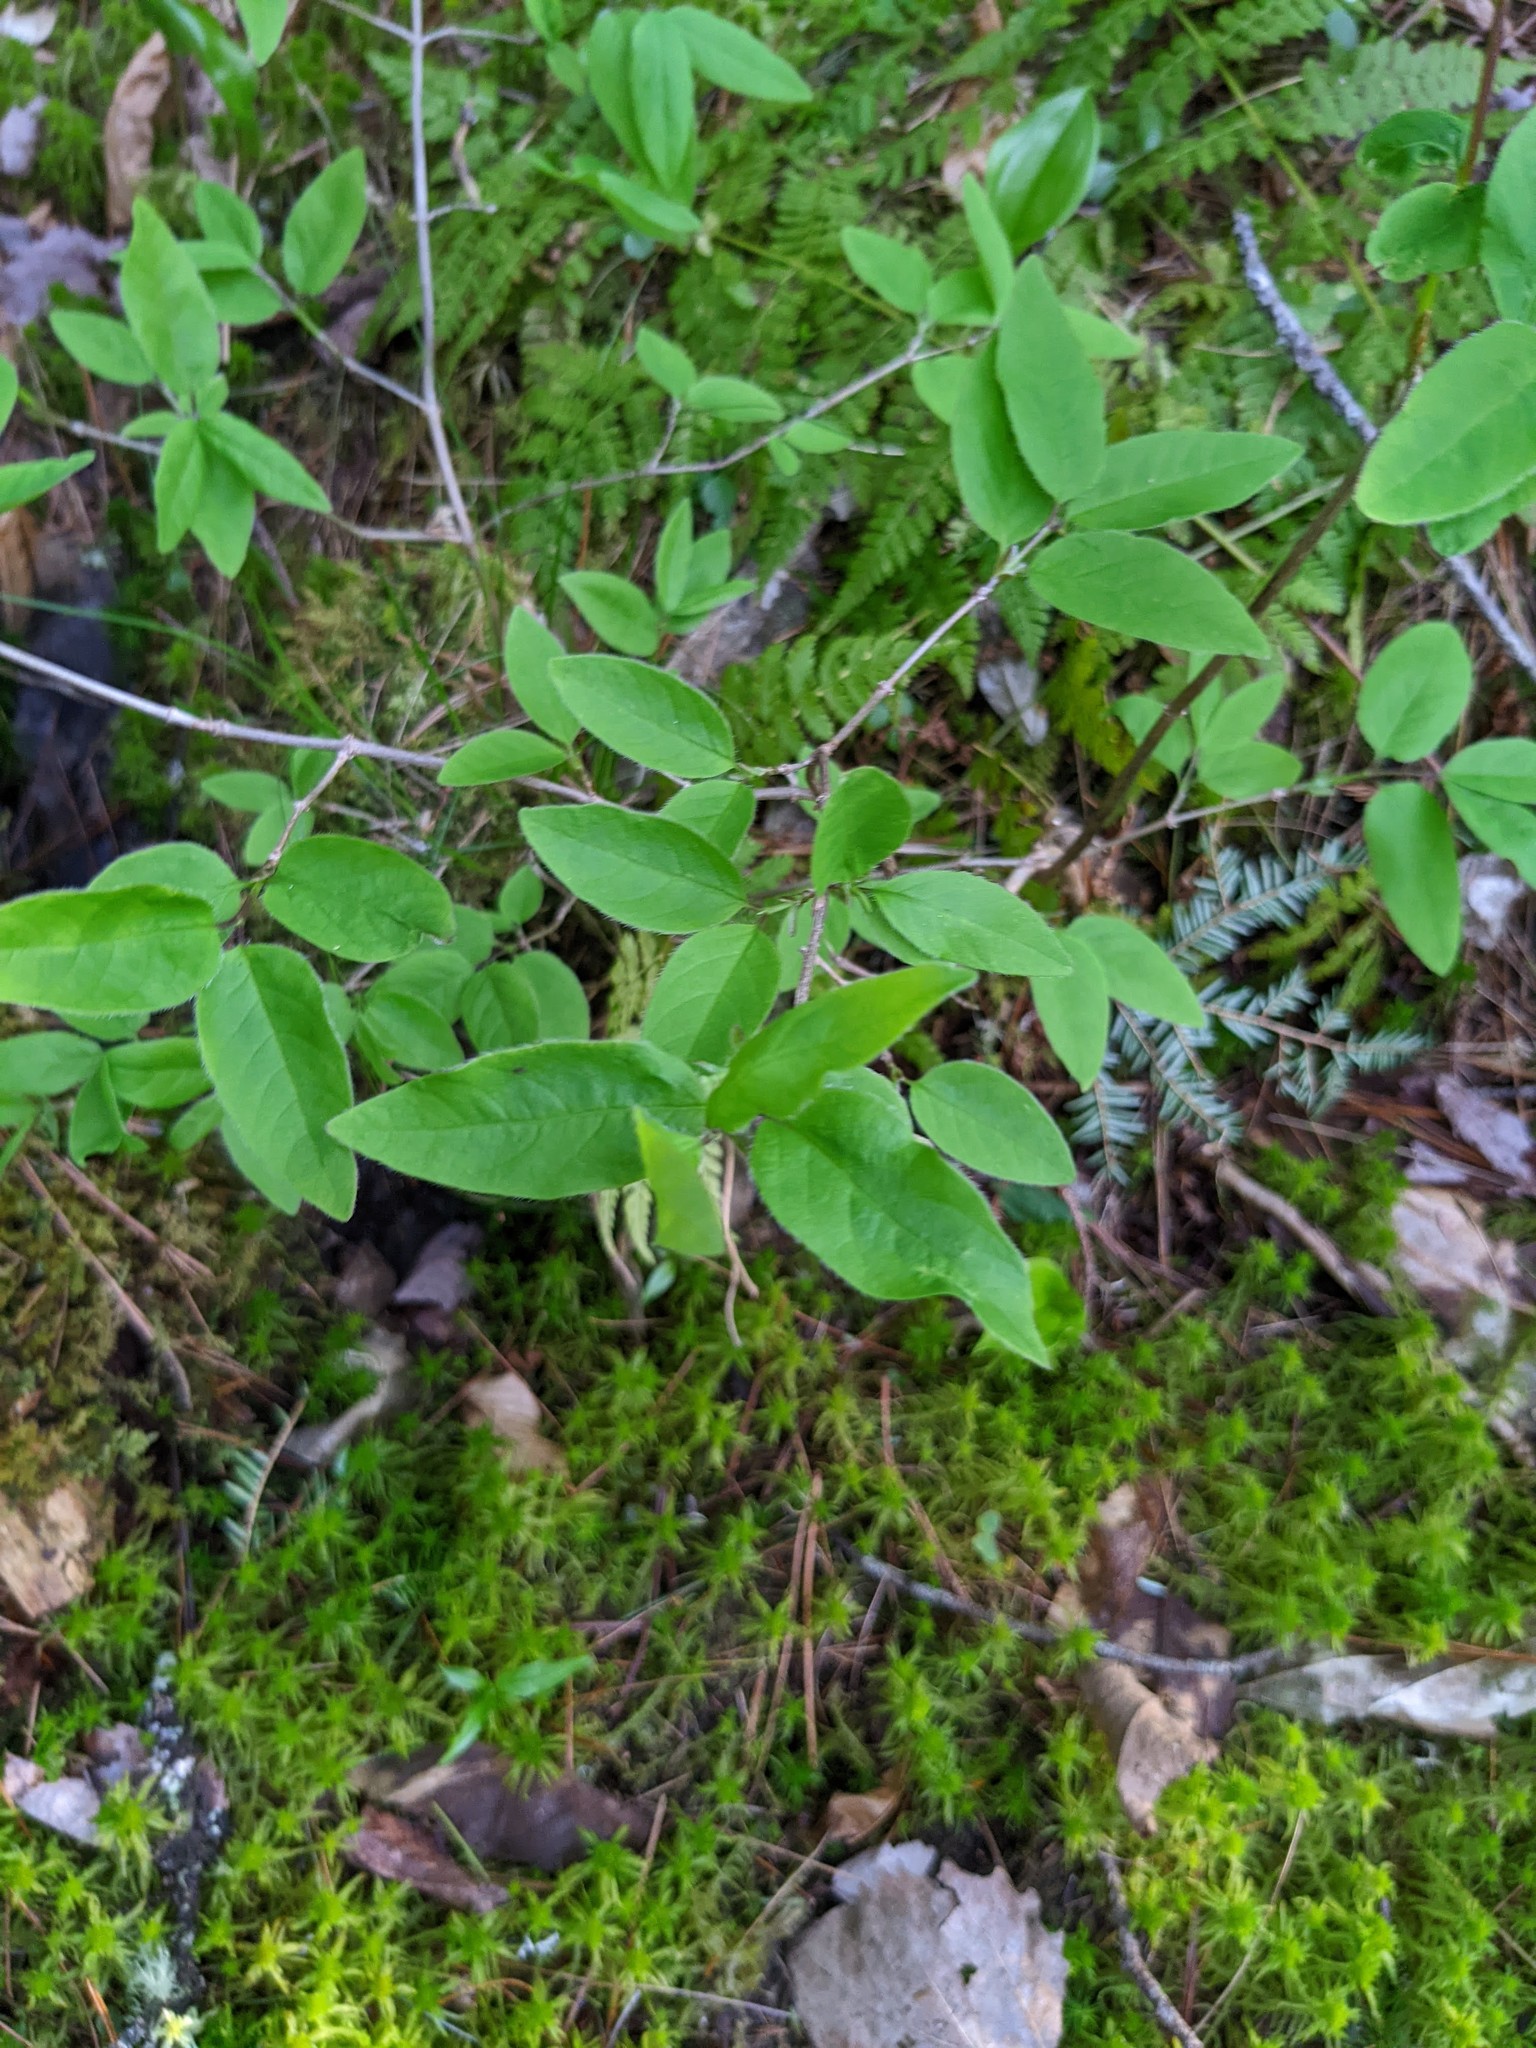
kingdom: Plantae
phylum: Tracheophyta
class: Magnoliopsida
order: Dipsacales
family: Caprifoliaceae
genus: Lonicera
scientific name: Lonicera canadensis
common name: American fly-honeysuckle
